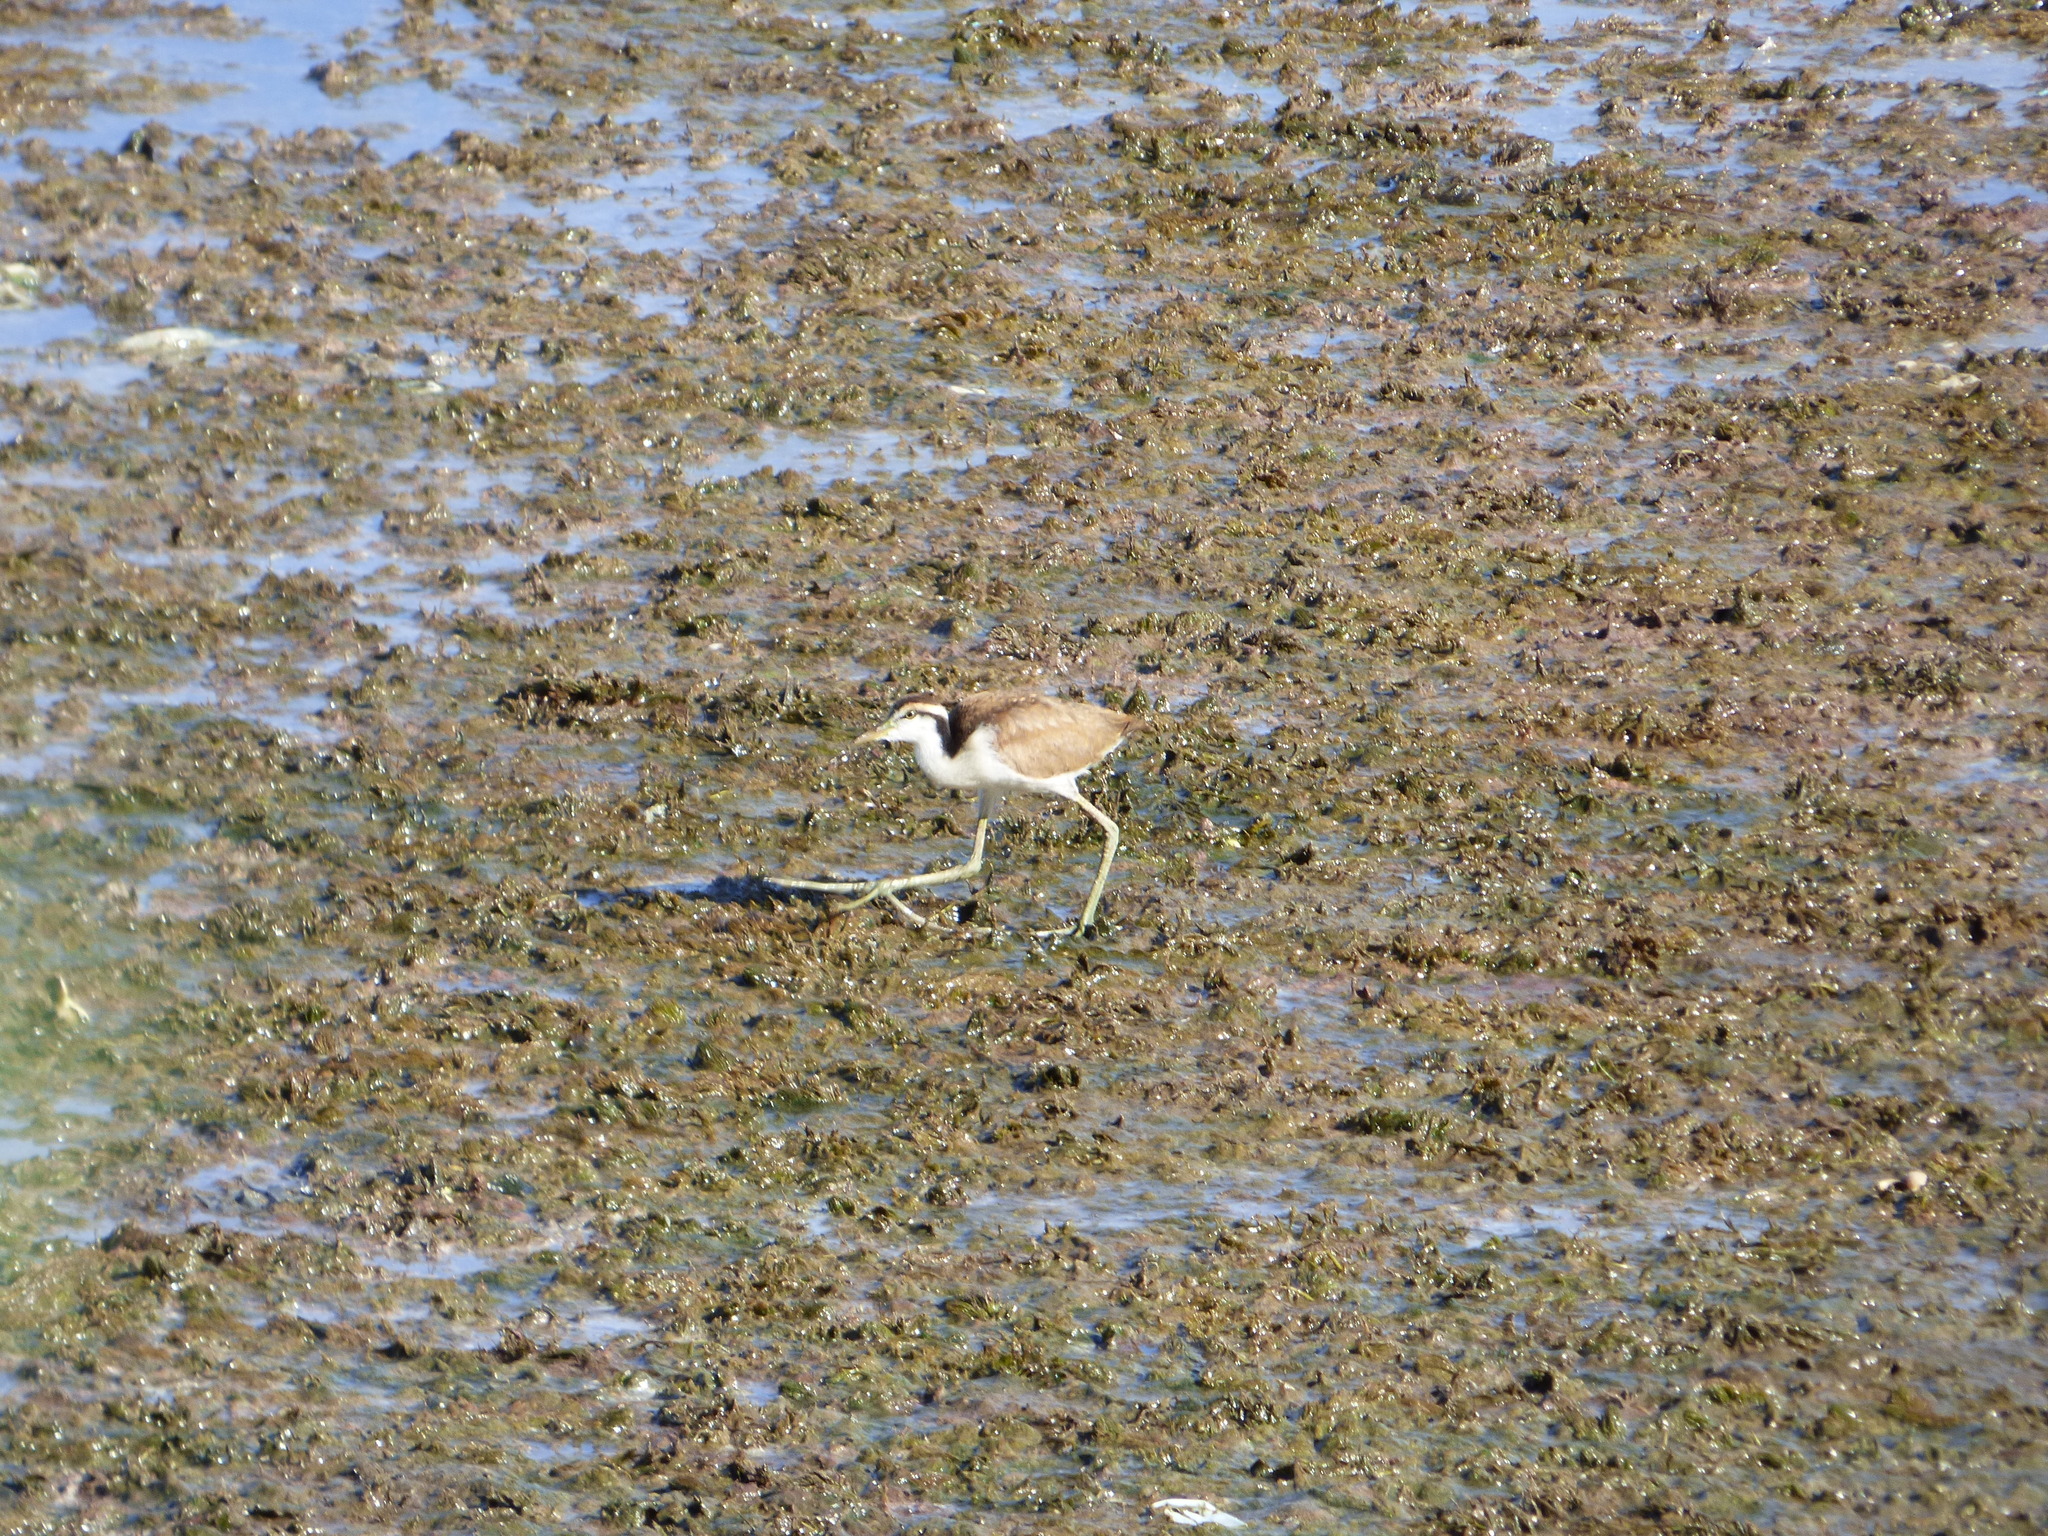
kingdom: Animalia
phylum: Chordata
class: Aves
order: Charadriiformes
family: Jacanidae
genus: Jacana
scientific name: Jacana jacana
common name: Wattled jacana
